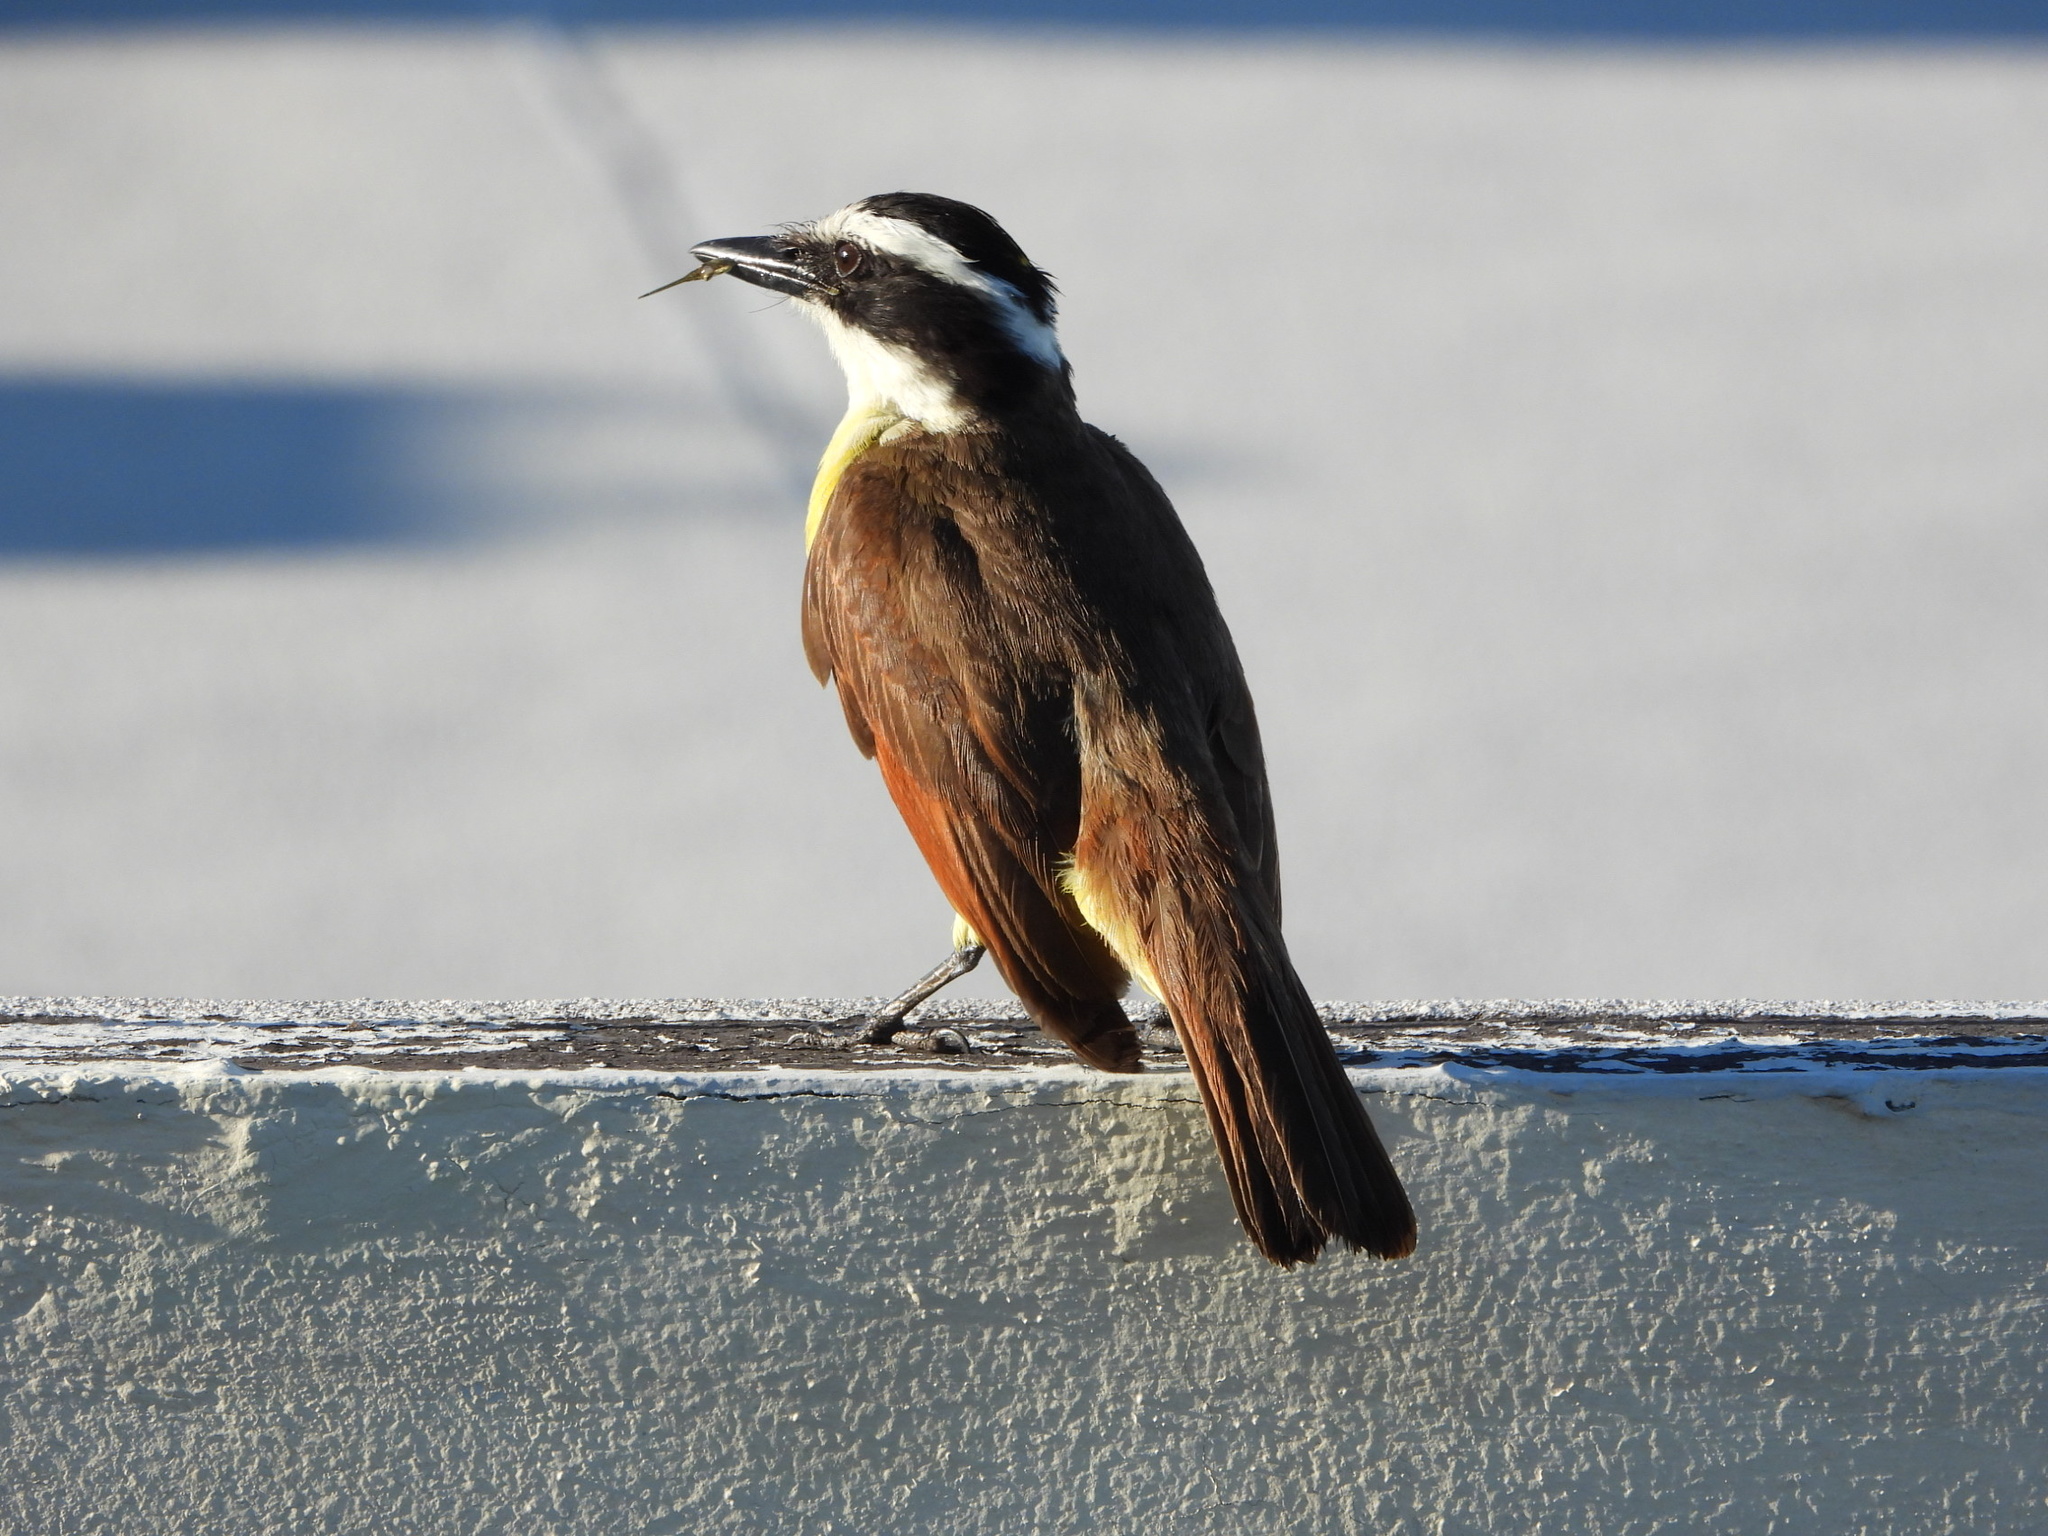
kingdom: Animalia
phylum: Chordata
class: Aves
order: Passeriformes
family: Tyrannidae
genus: Pitangus
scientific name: Pitangus sulphuratus
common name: Great kiskadee
